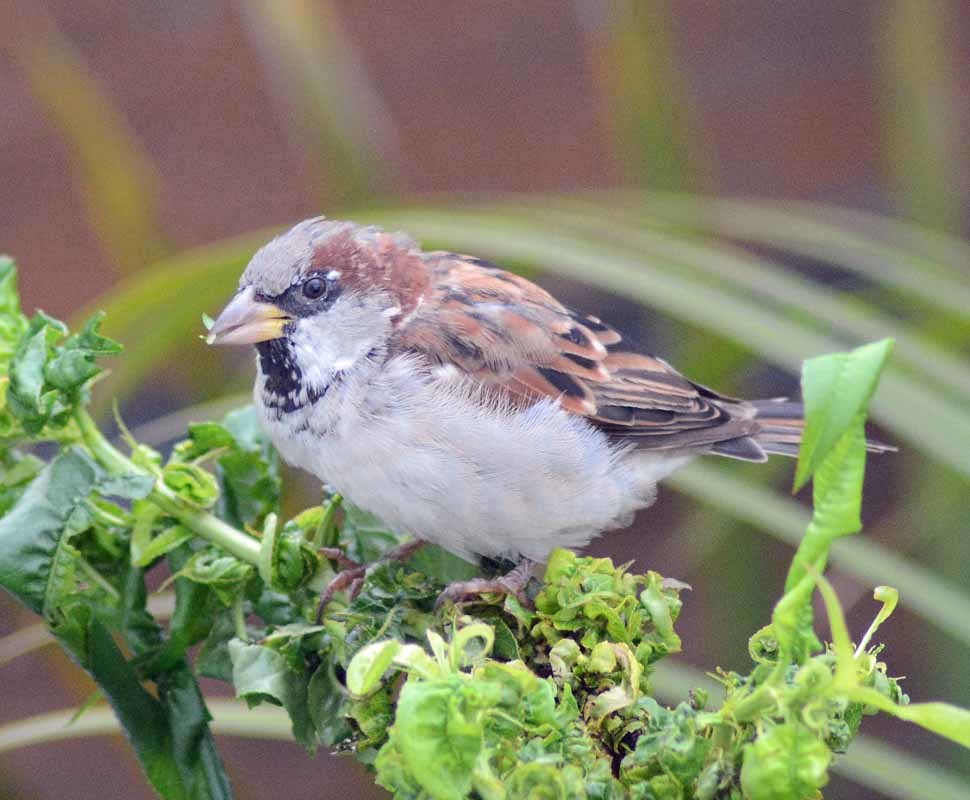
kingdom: Animalia
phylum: Chordata
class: Aves
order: Passeriformes
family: Passeridae
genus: Passer
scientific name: Passer domesticus
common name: House sparrow
